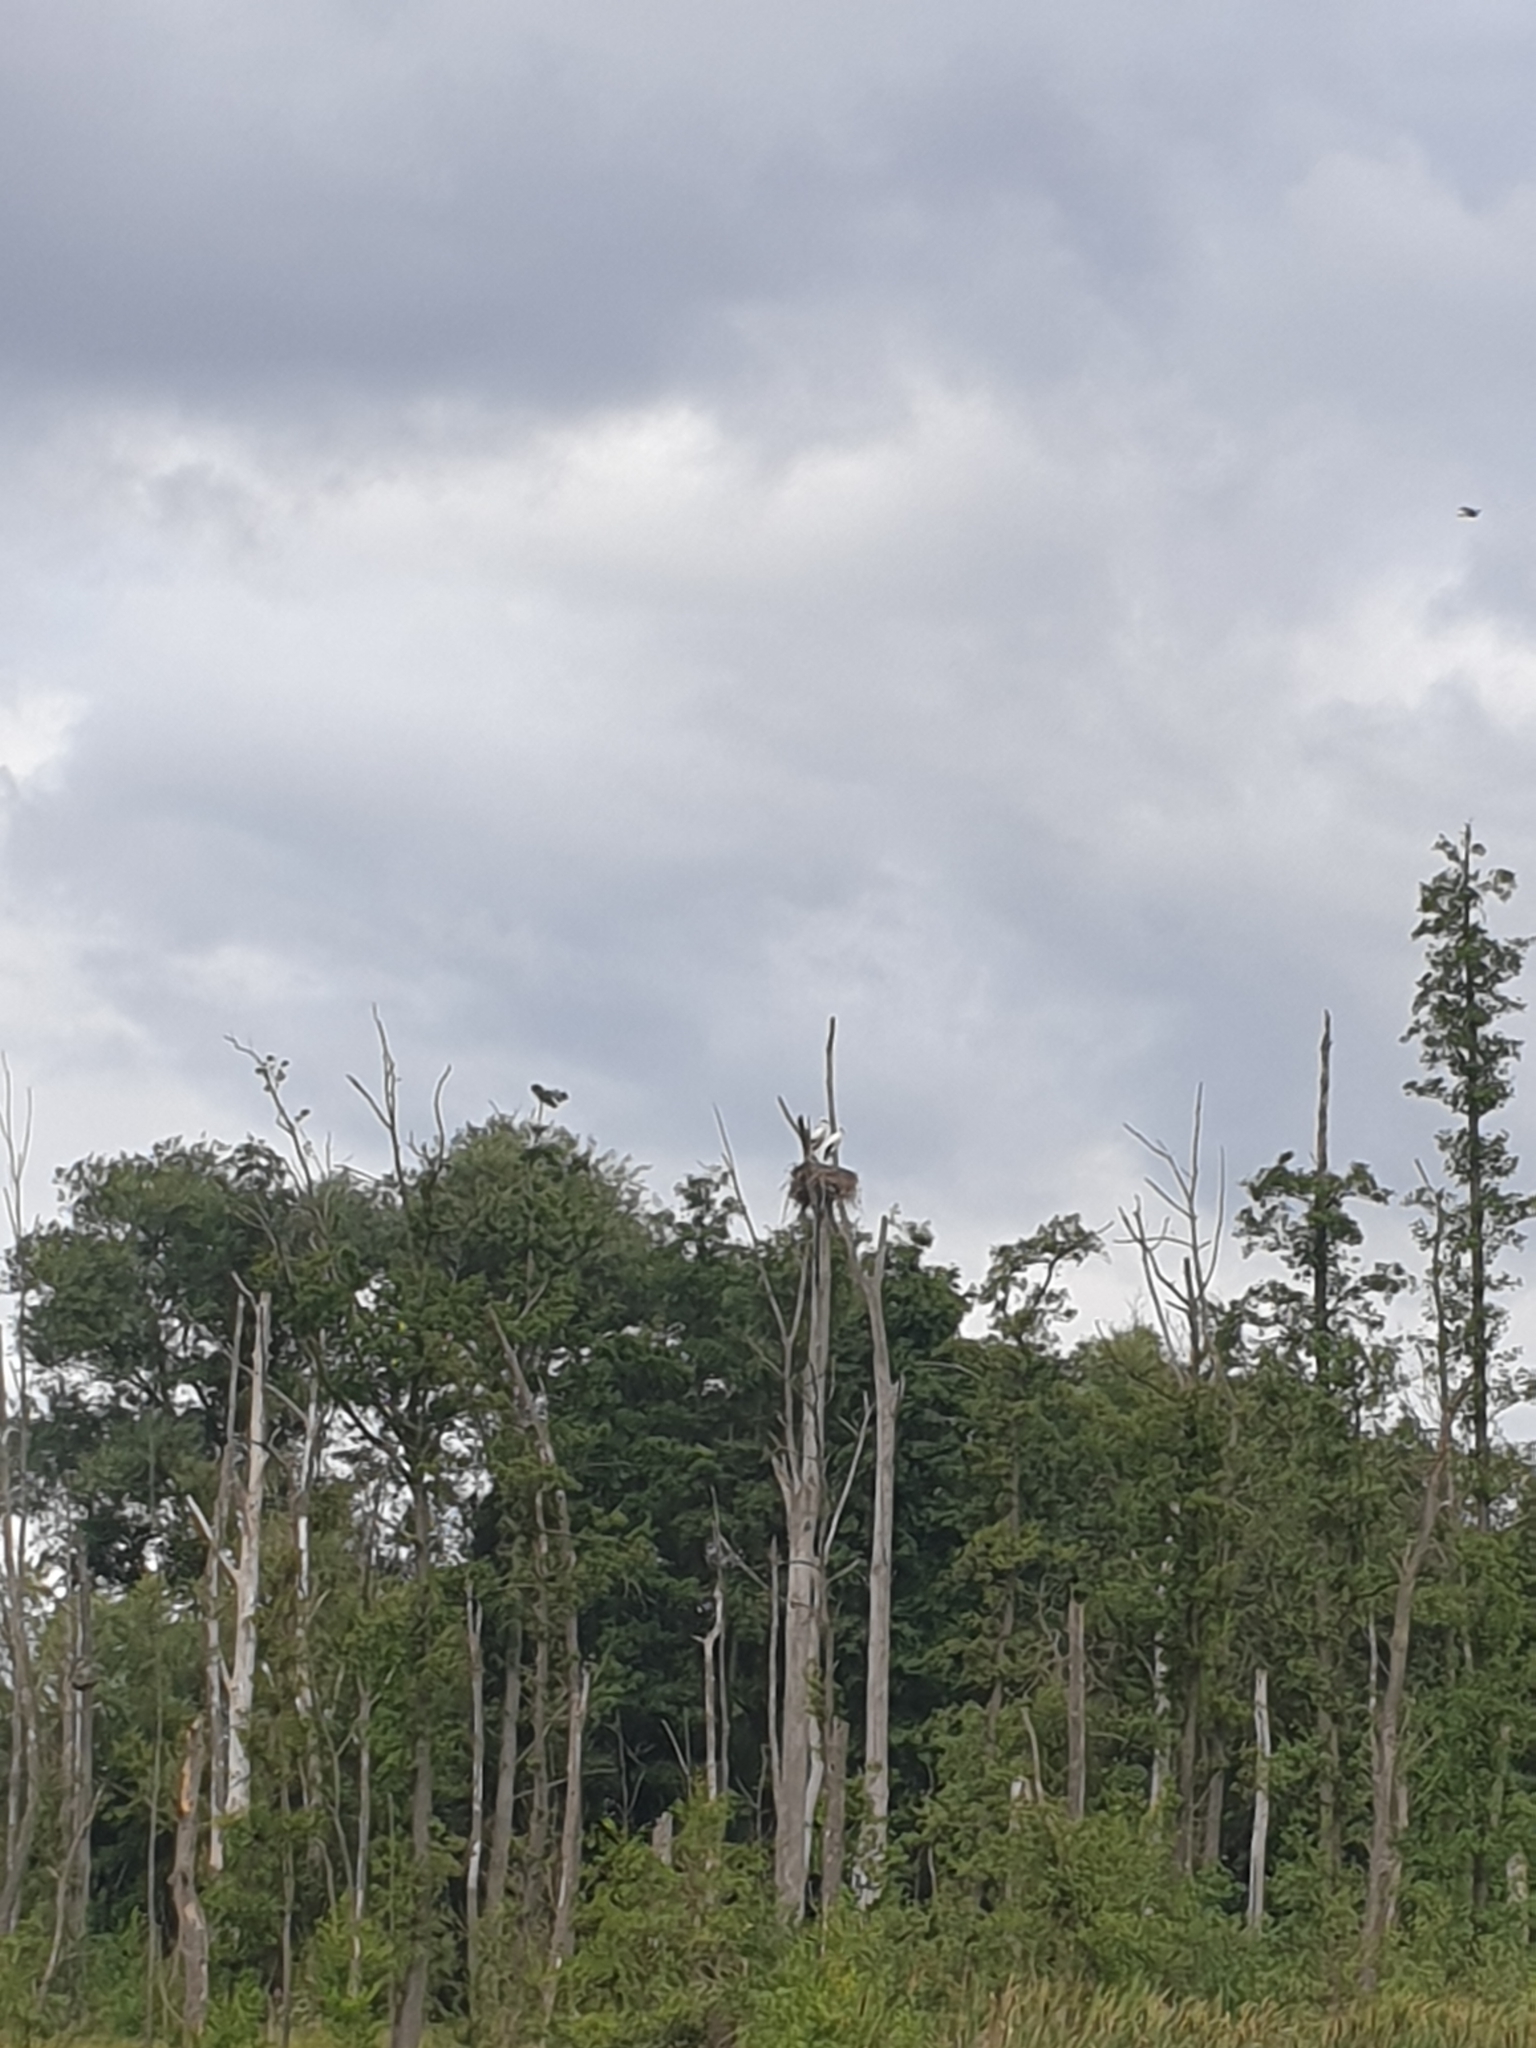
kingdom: Animalia
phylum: Chordata
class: Aves
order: Ciconiiformes
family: Ciconiidae
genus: Ciconia
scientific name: Ciconia ciconia
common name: White stork
